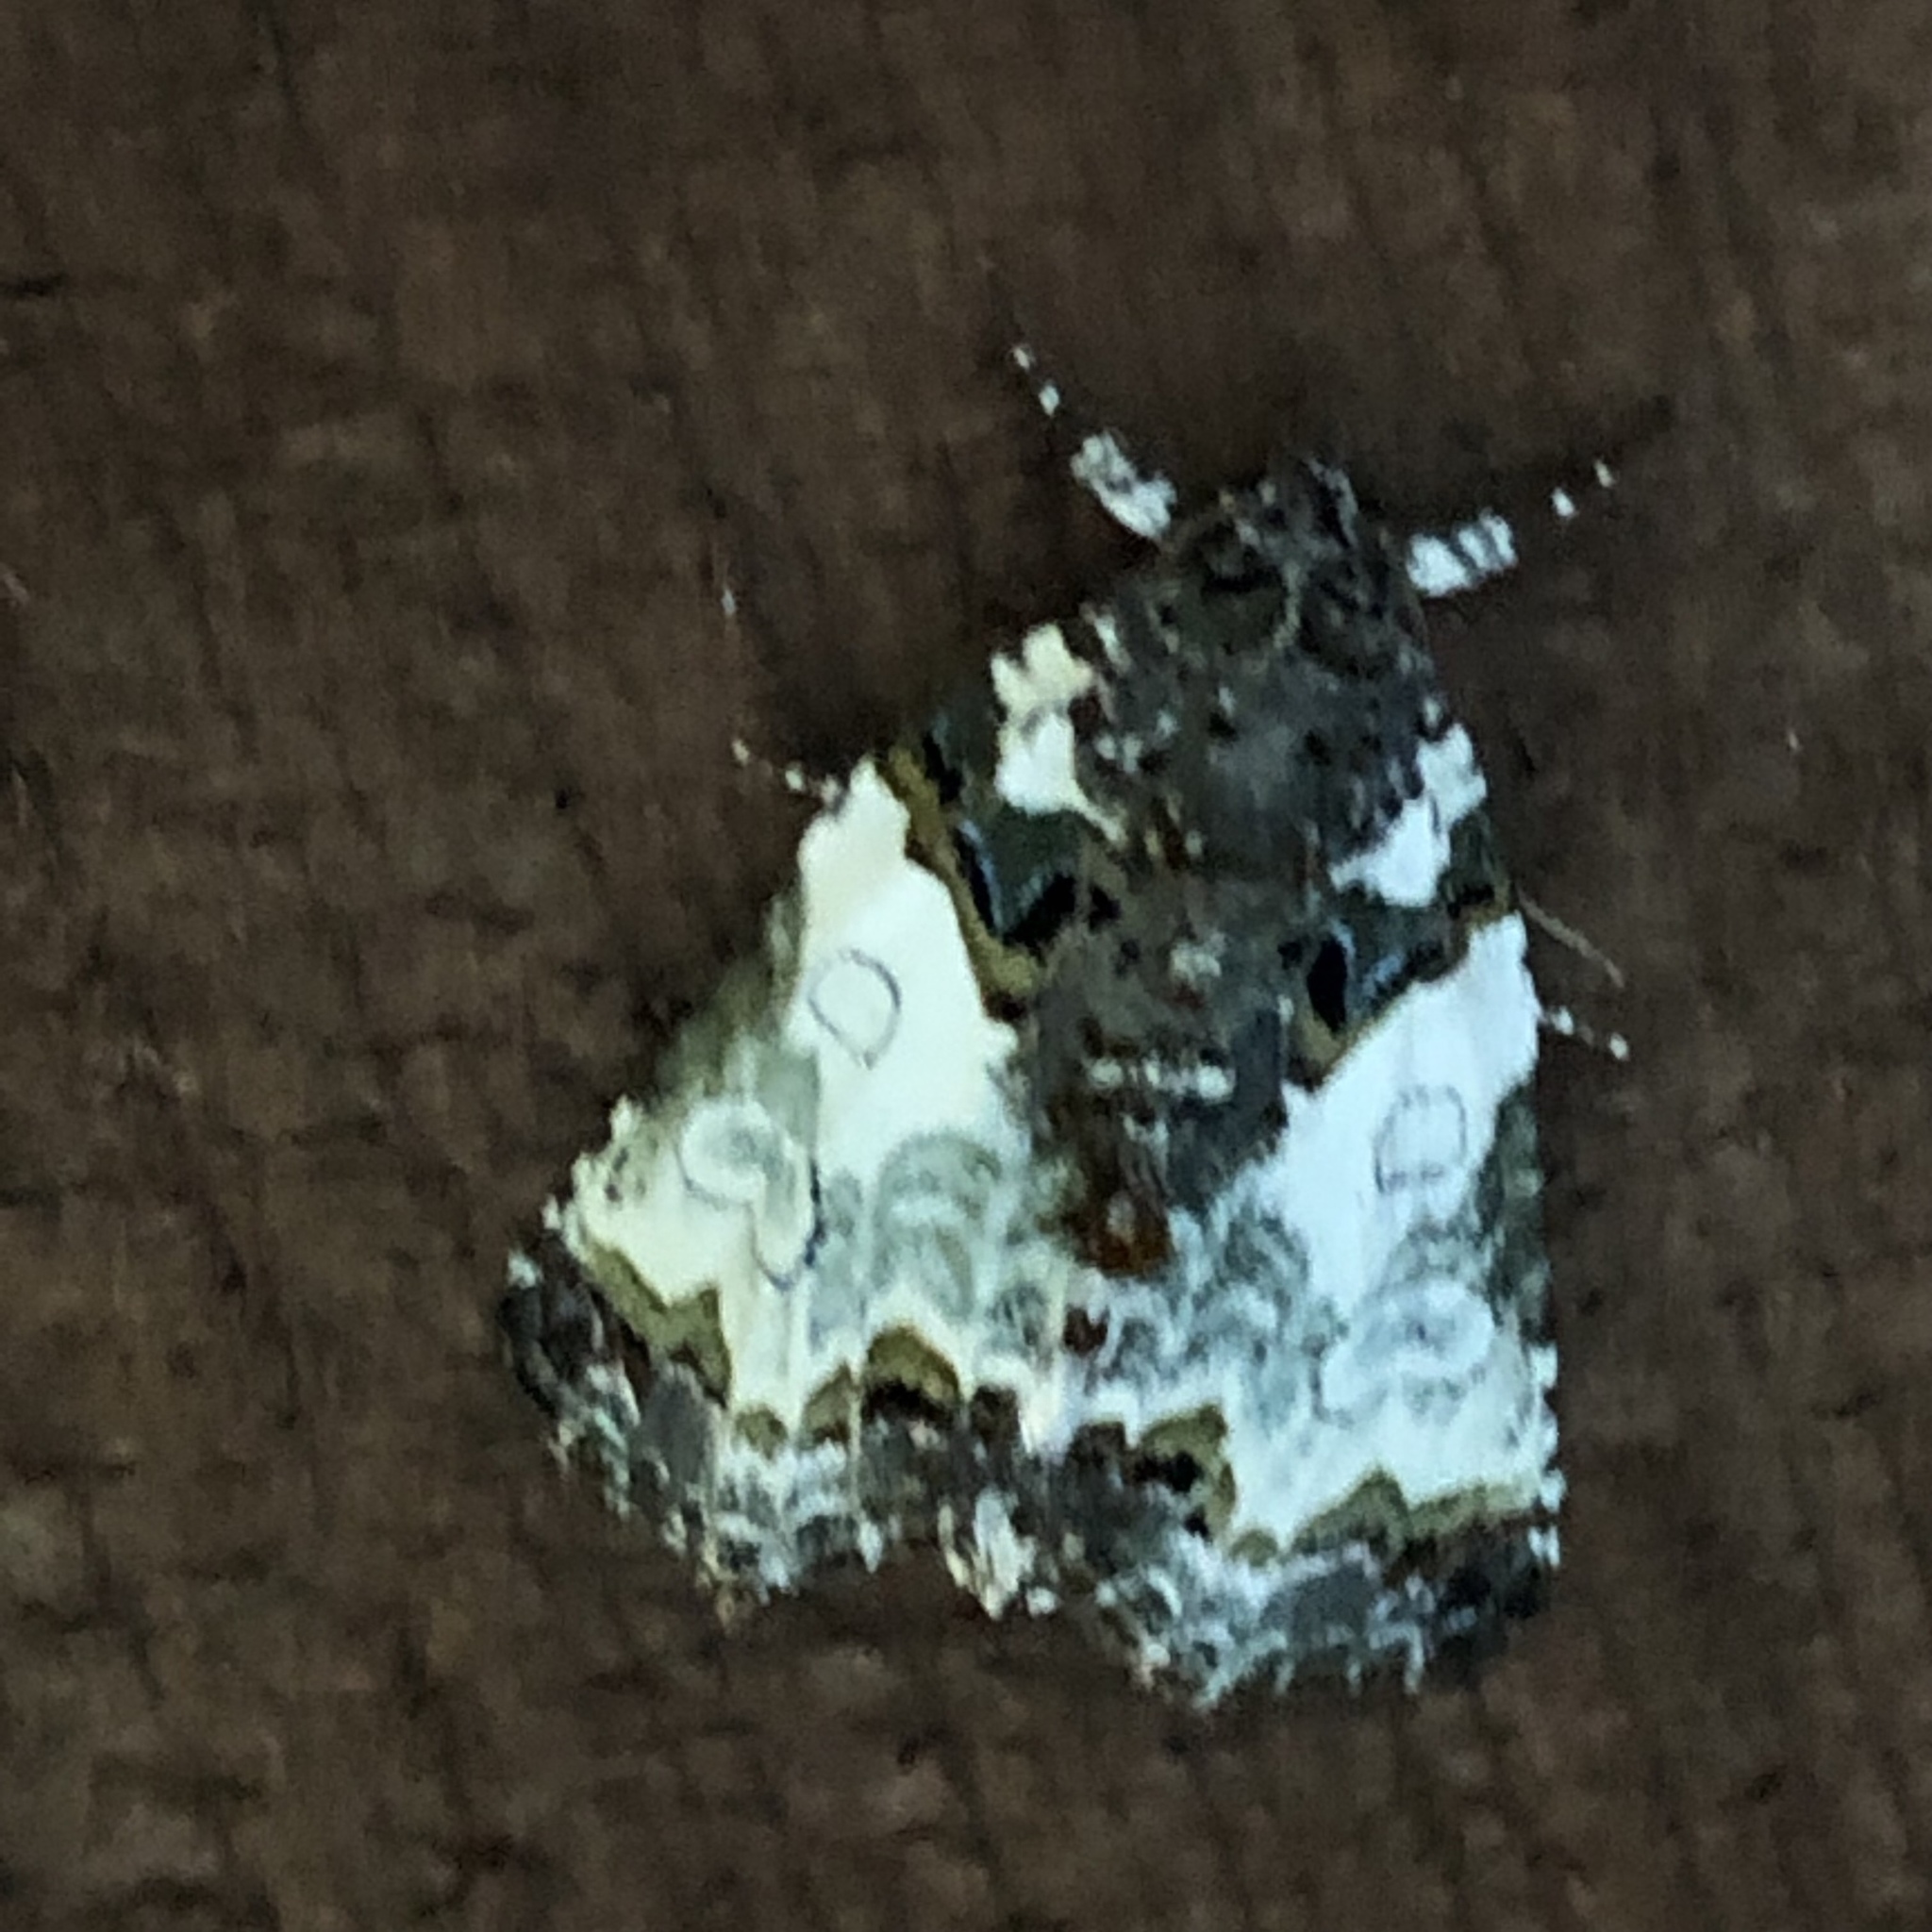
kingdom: Animalia
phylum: Arthropoda
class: Insecta
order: Lepidoptera
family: Noctuidae
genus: Cerma
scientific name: Cerma cerintha
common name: Tufted bird-dropping moth
